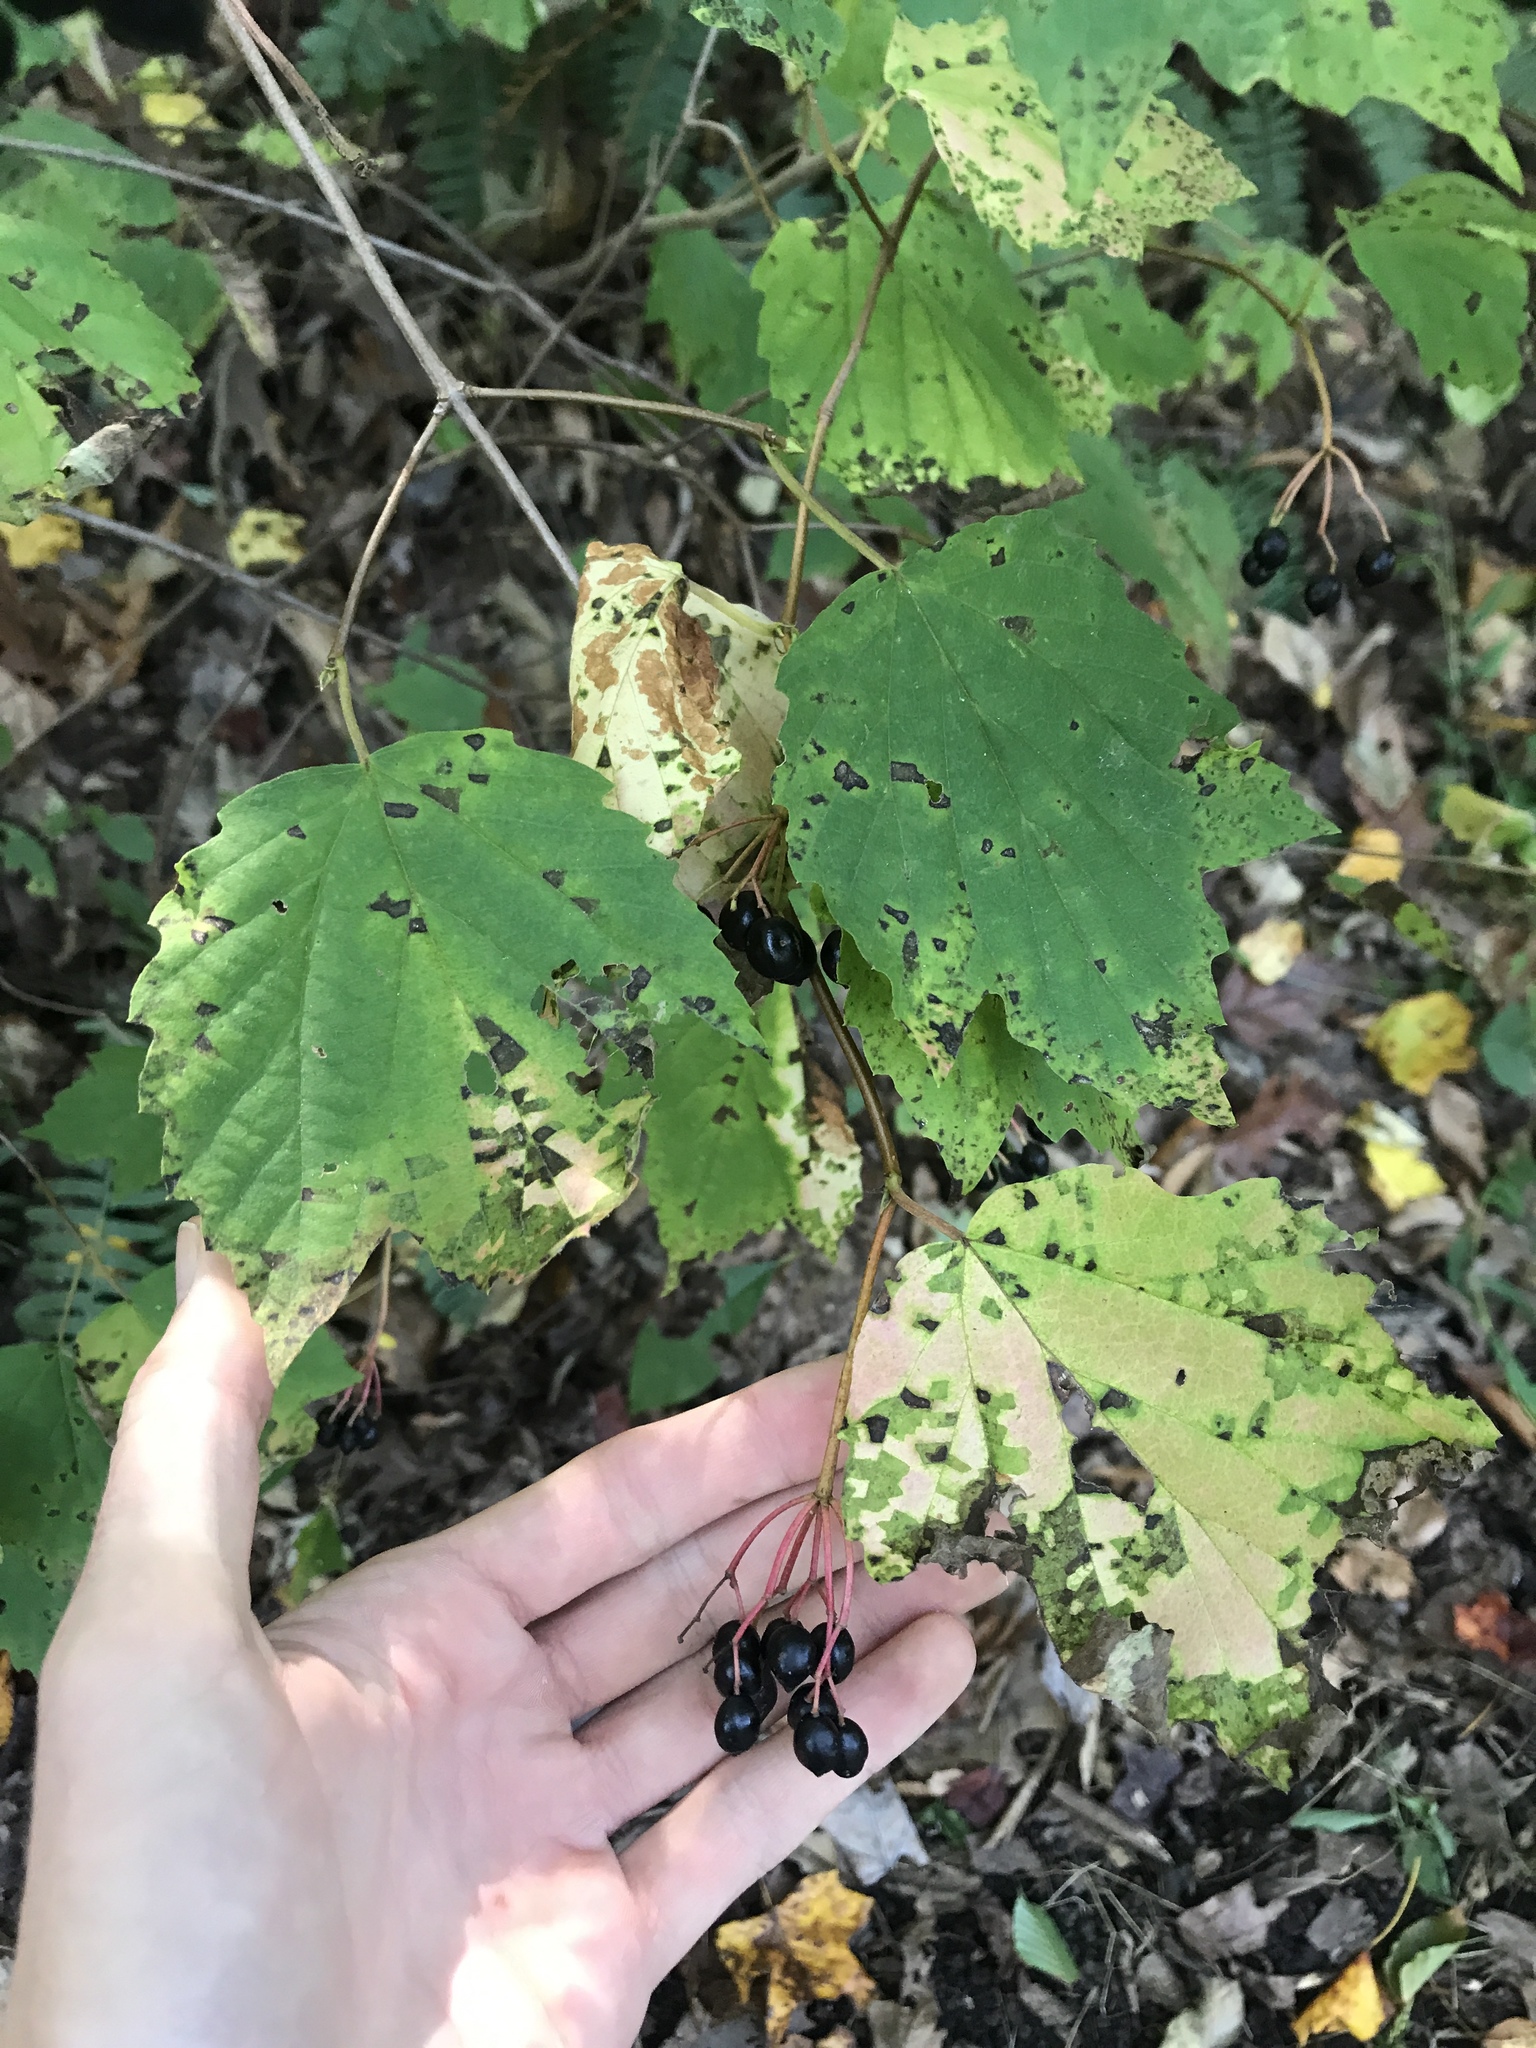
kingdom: Plantae
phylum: Tracheophyta
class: Magnoliopsida
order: Dipsacales
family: Viburnaceae
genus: Viburnum
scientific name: Viburnum acerifolium
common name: Dockmackie
